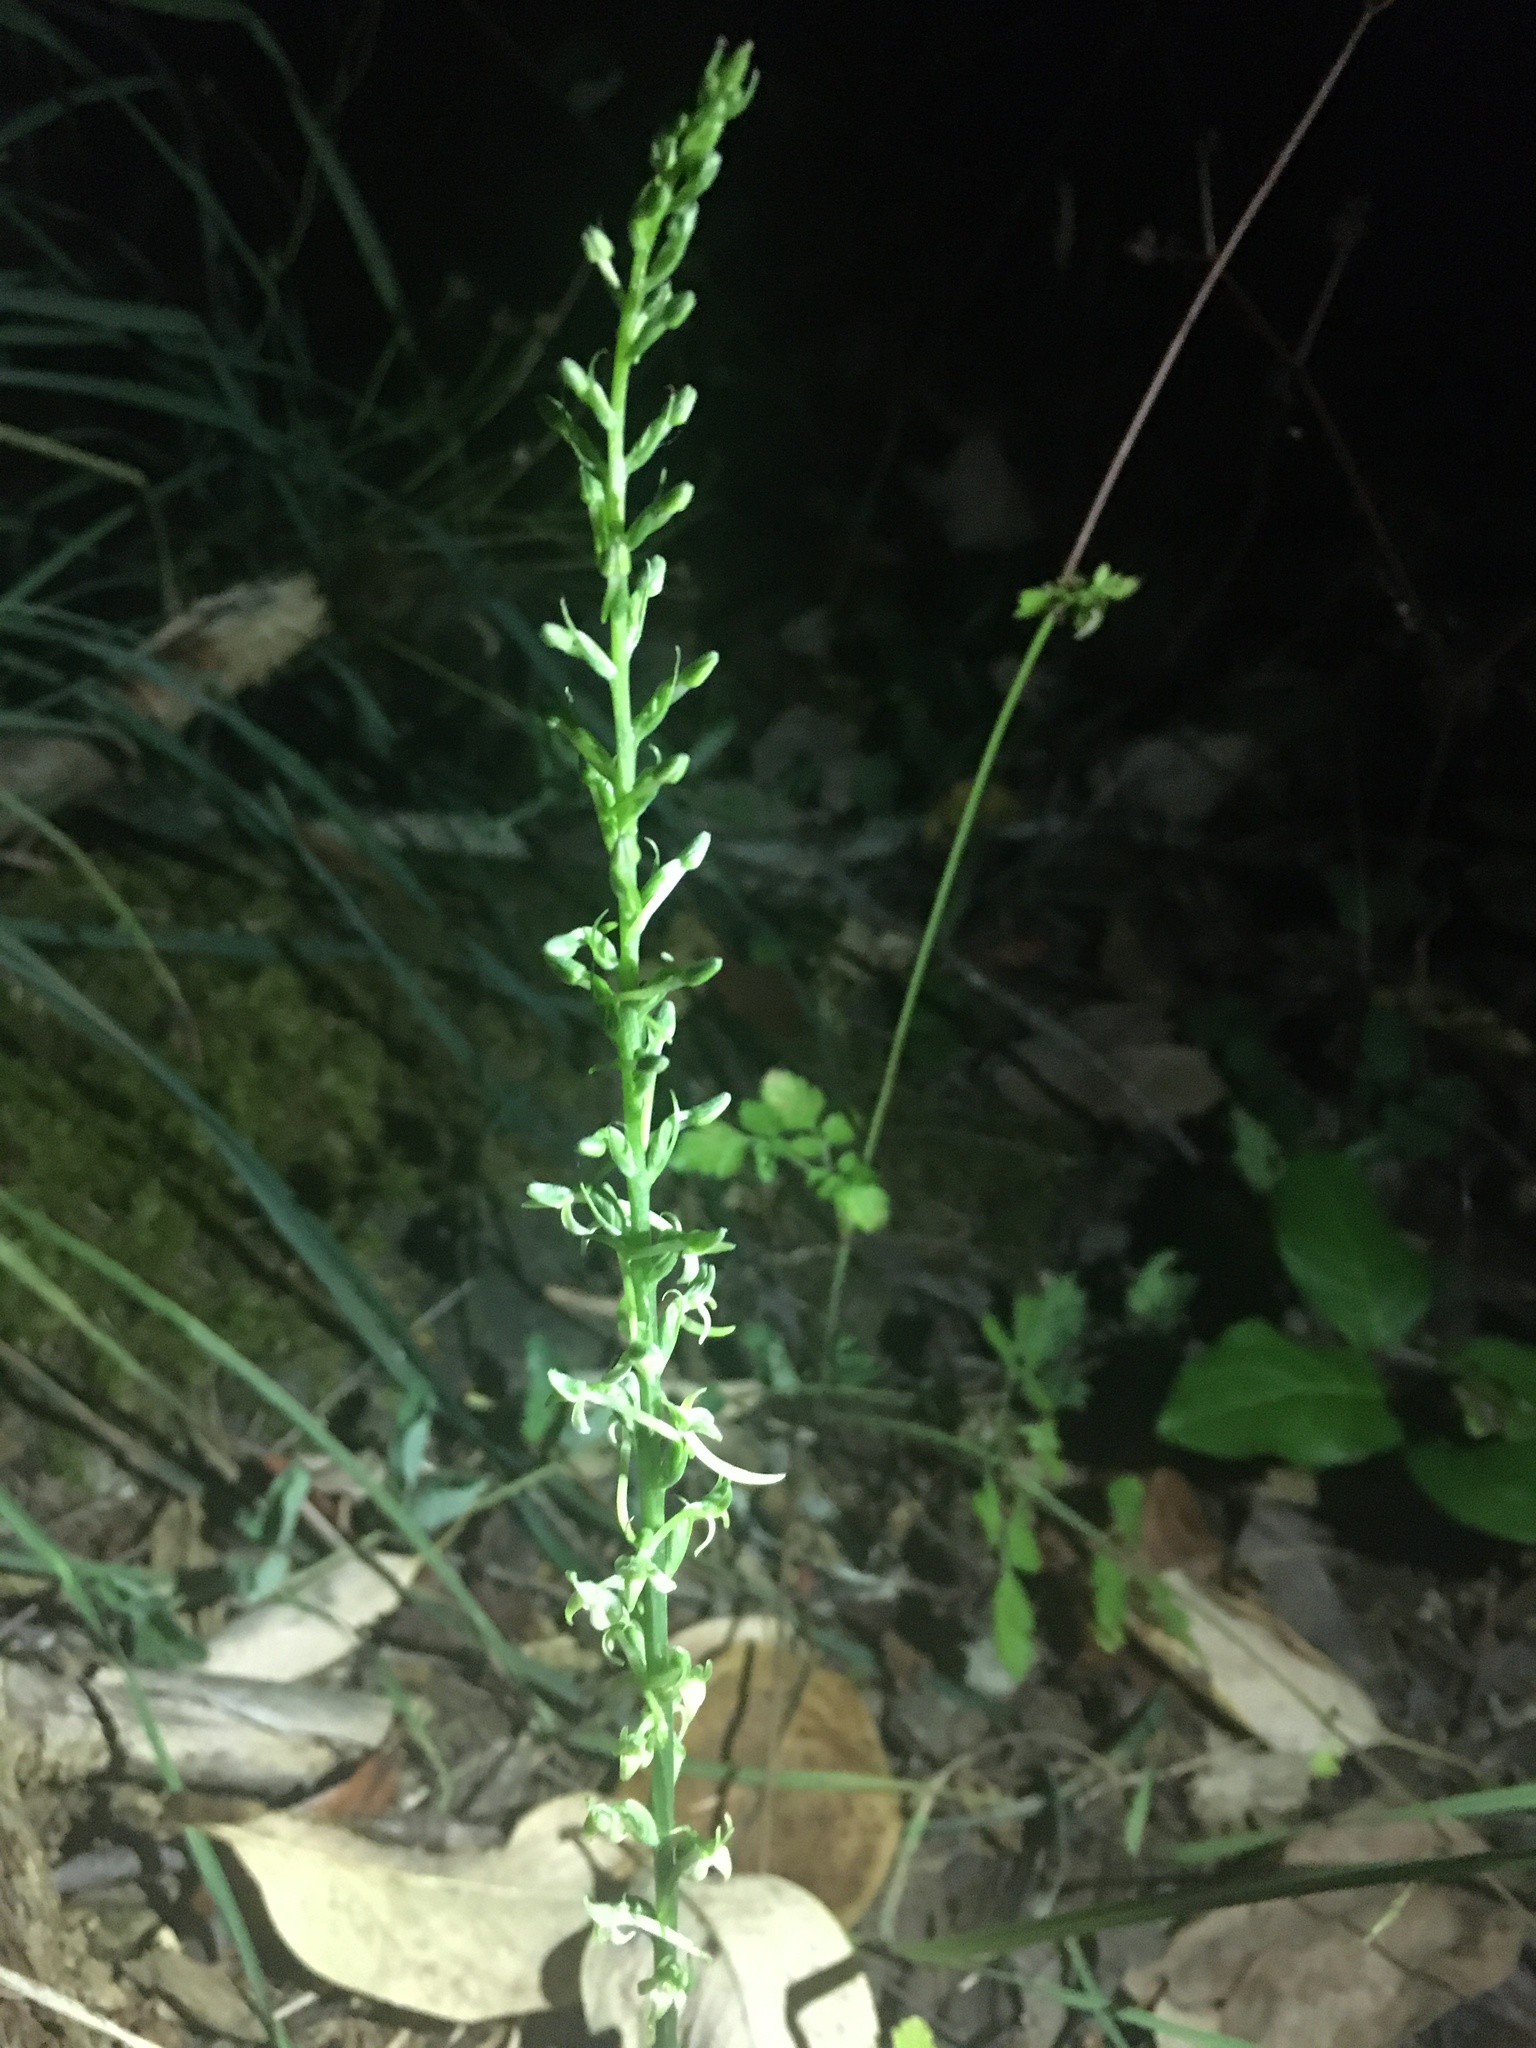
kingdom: Plantae
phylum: Tracheophyta
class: Liliopsida
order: Asparagales
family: Orchidaceae
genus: Platanthera
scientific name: Platanthera elongata
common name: Dense-flowered rein orchid
